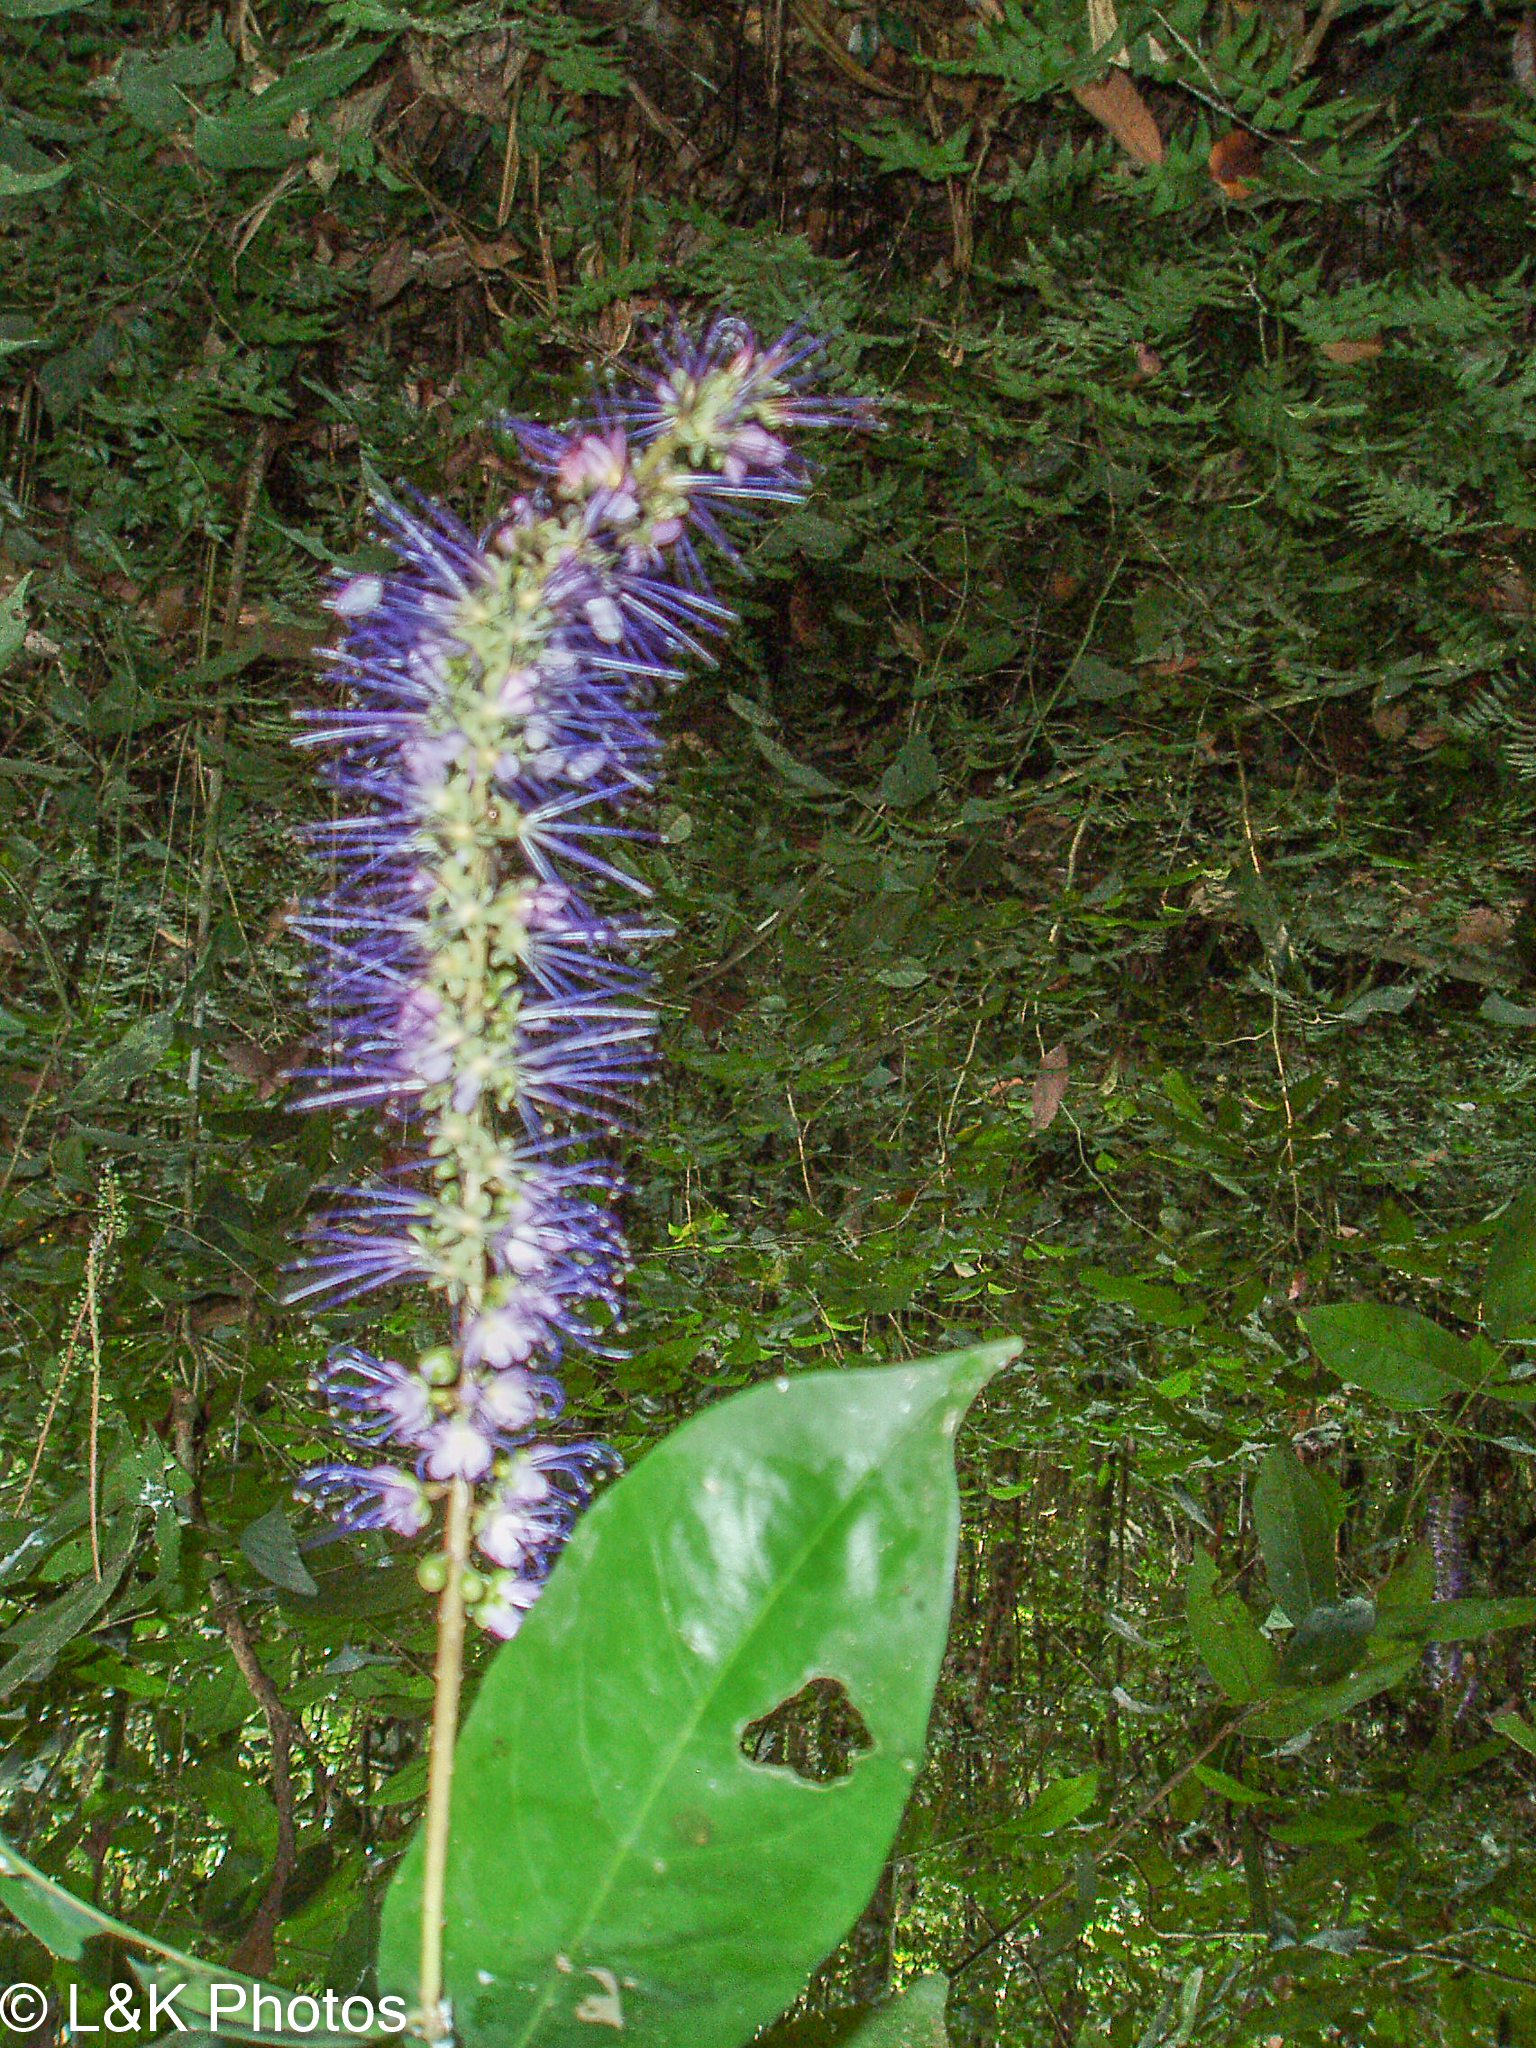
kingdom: Plantae
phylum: Tracheophyta
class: Magnoliopsida
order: Malpighiales
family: Chrysobalanaceae
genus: Hirtella
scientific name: Hirtella racemosa
